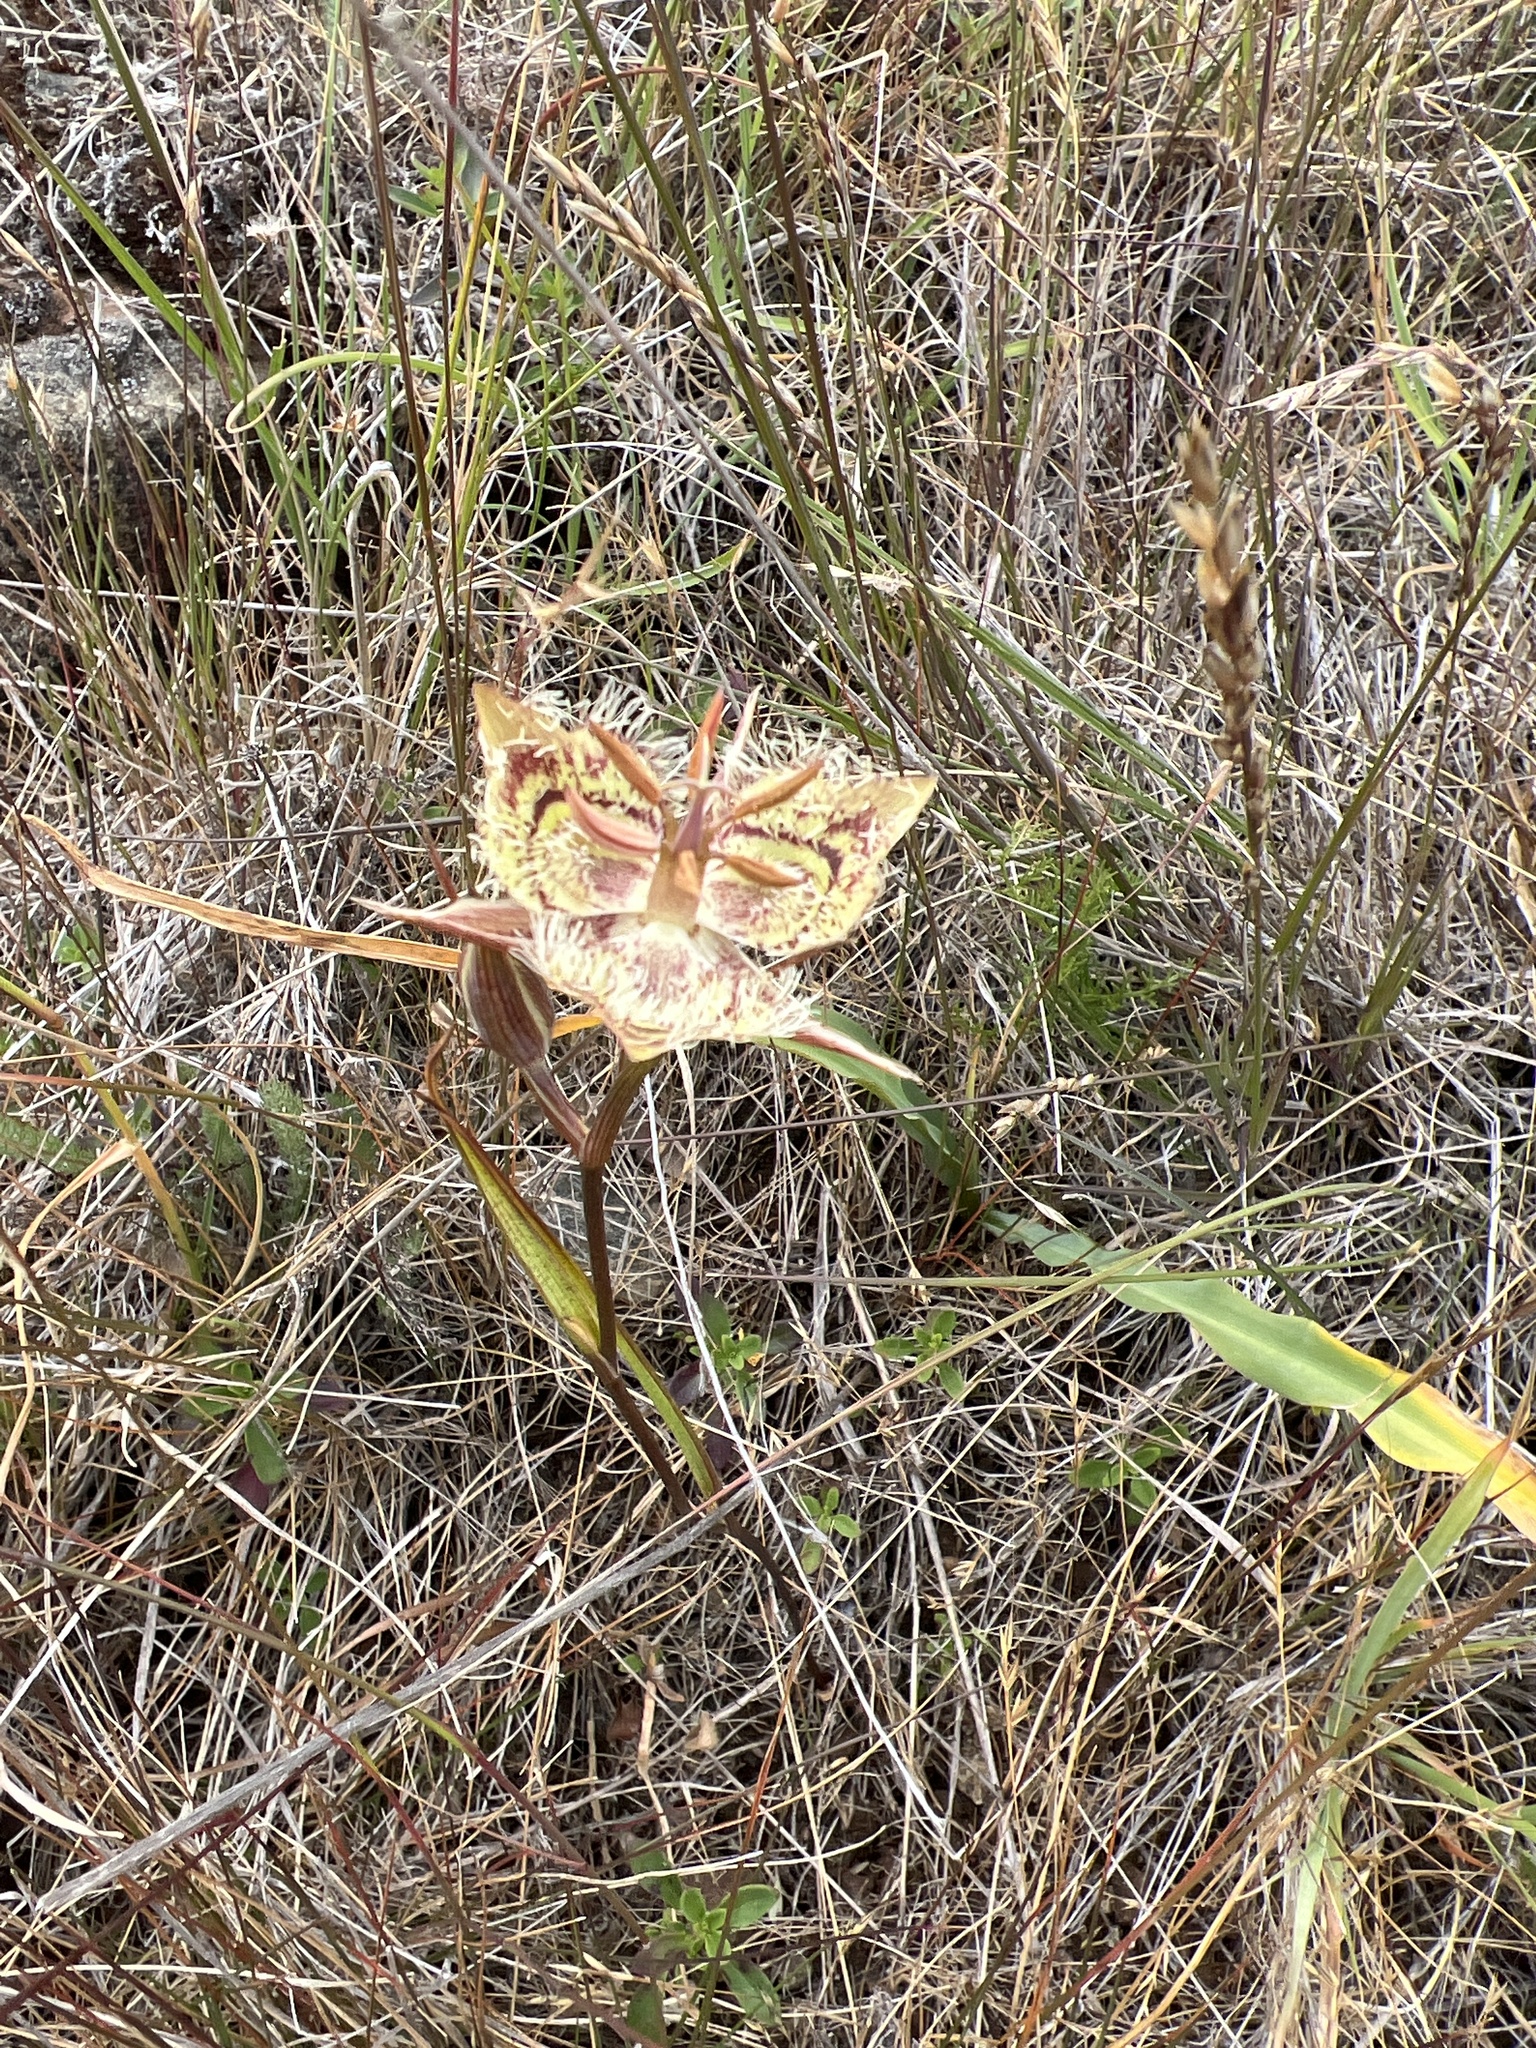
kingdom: Plantae
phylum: Tracheophyta
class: Liliopsida
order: Liliales
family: Liliaceae
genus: Calochortus
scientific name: Calochortus tiburonensis
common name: Tiburon mariposa-lily
